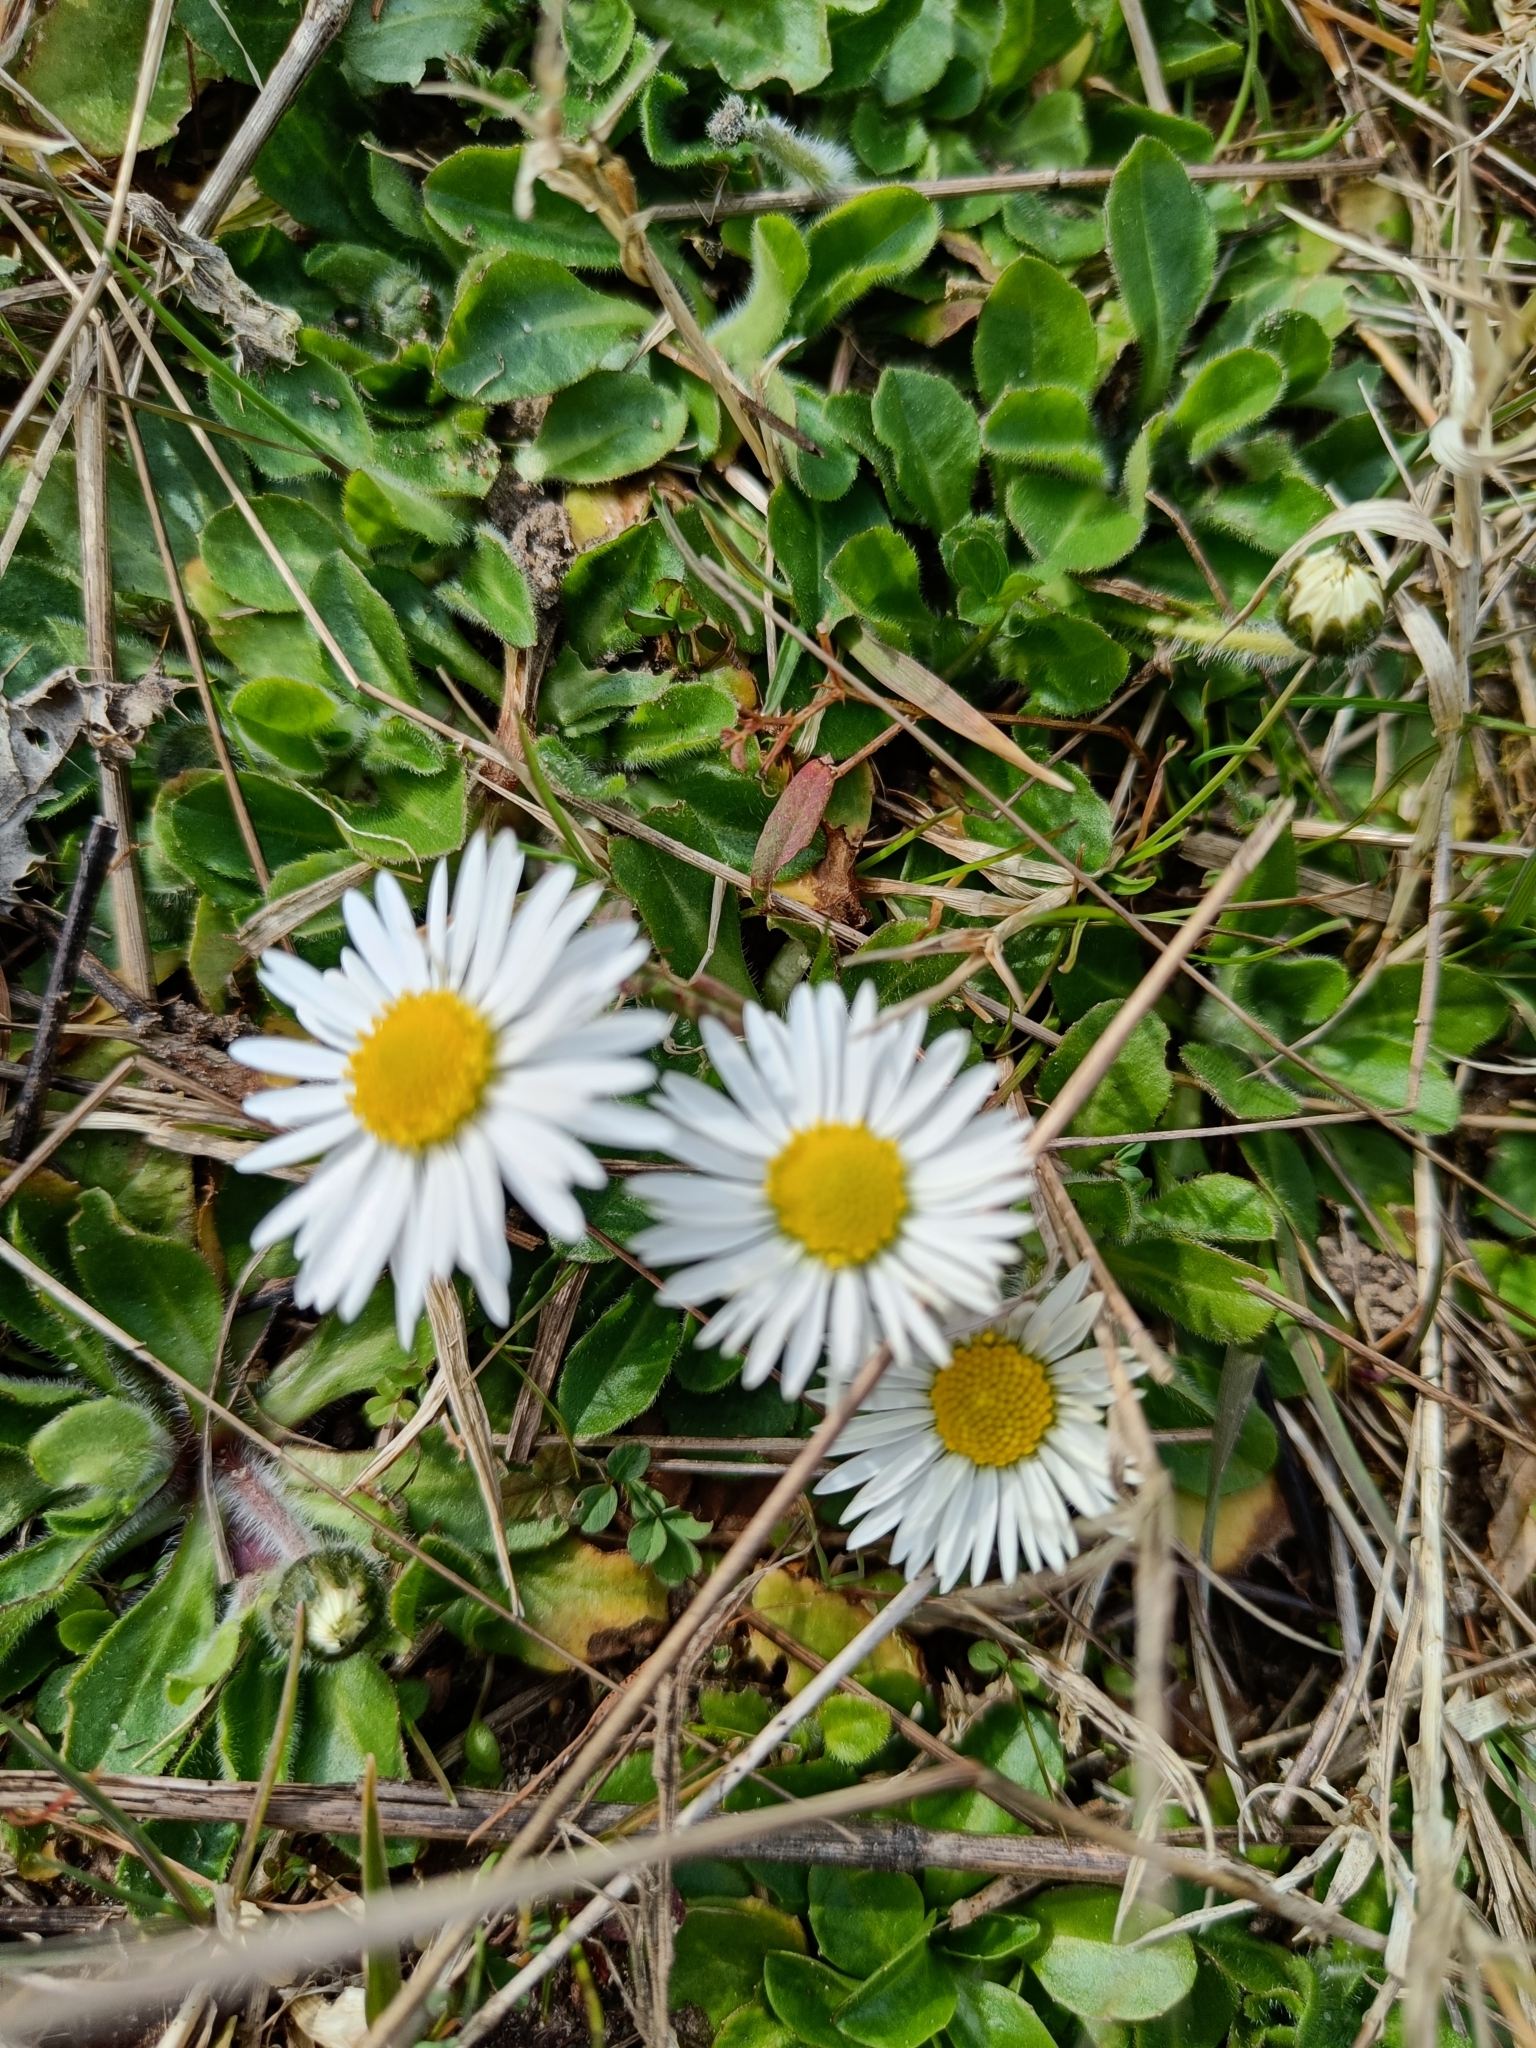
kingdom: Plantae
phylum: Tracheophyta
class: Magnoliopsida
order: Asterales
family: Asteraceae
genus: Bellis
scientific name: Bellis perennis
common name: Lawndaisy
